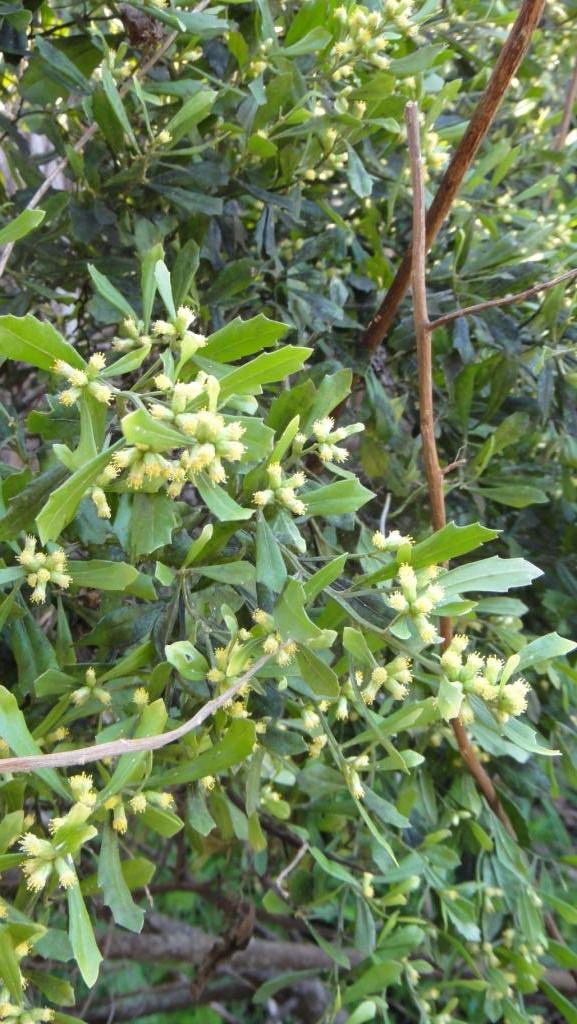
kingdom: Plantae
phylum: Tracheophyta
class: Magnoliopsida
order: Asterales
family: Asteraceae
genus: Baccharis
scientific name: Baccharis glomeruliflora
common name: Silverling groundsel bush
